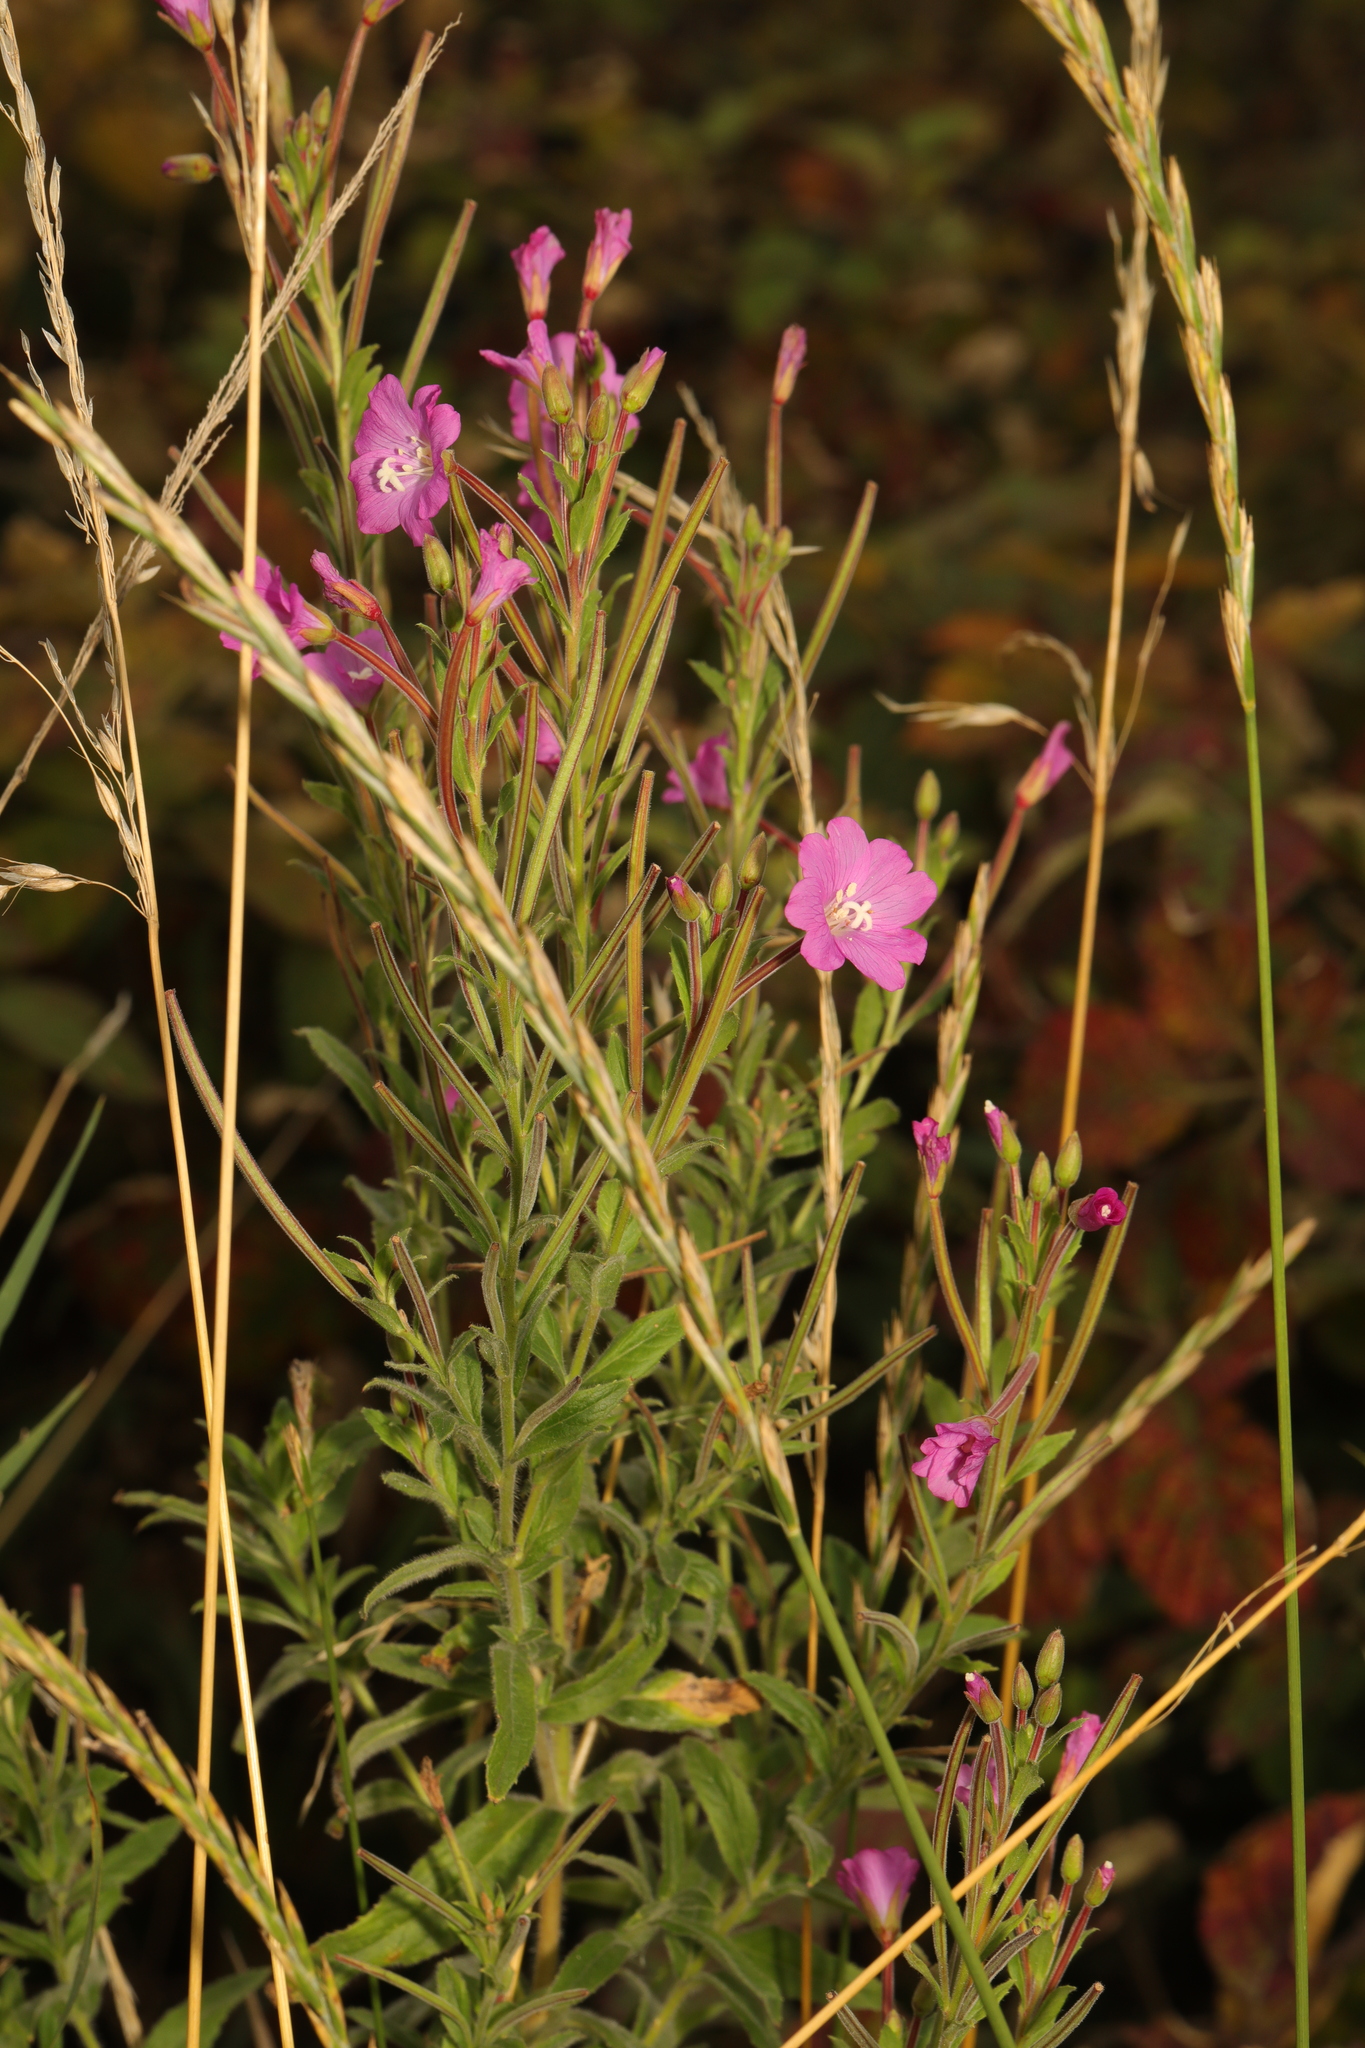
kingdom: Plantae
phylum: Tracheophyta
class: Magnoliopsida
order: Myrtales
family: Onagraceae
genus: Epilobium
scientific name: Epilobium hirsutum
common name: Great willowherb
